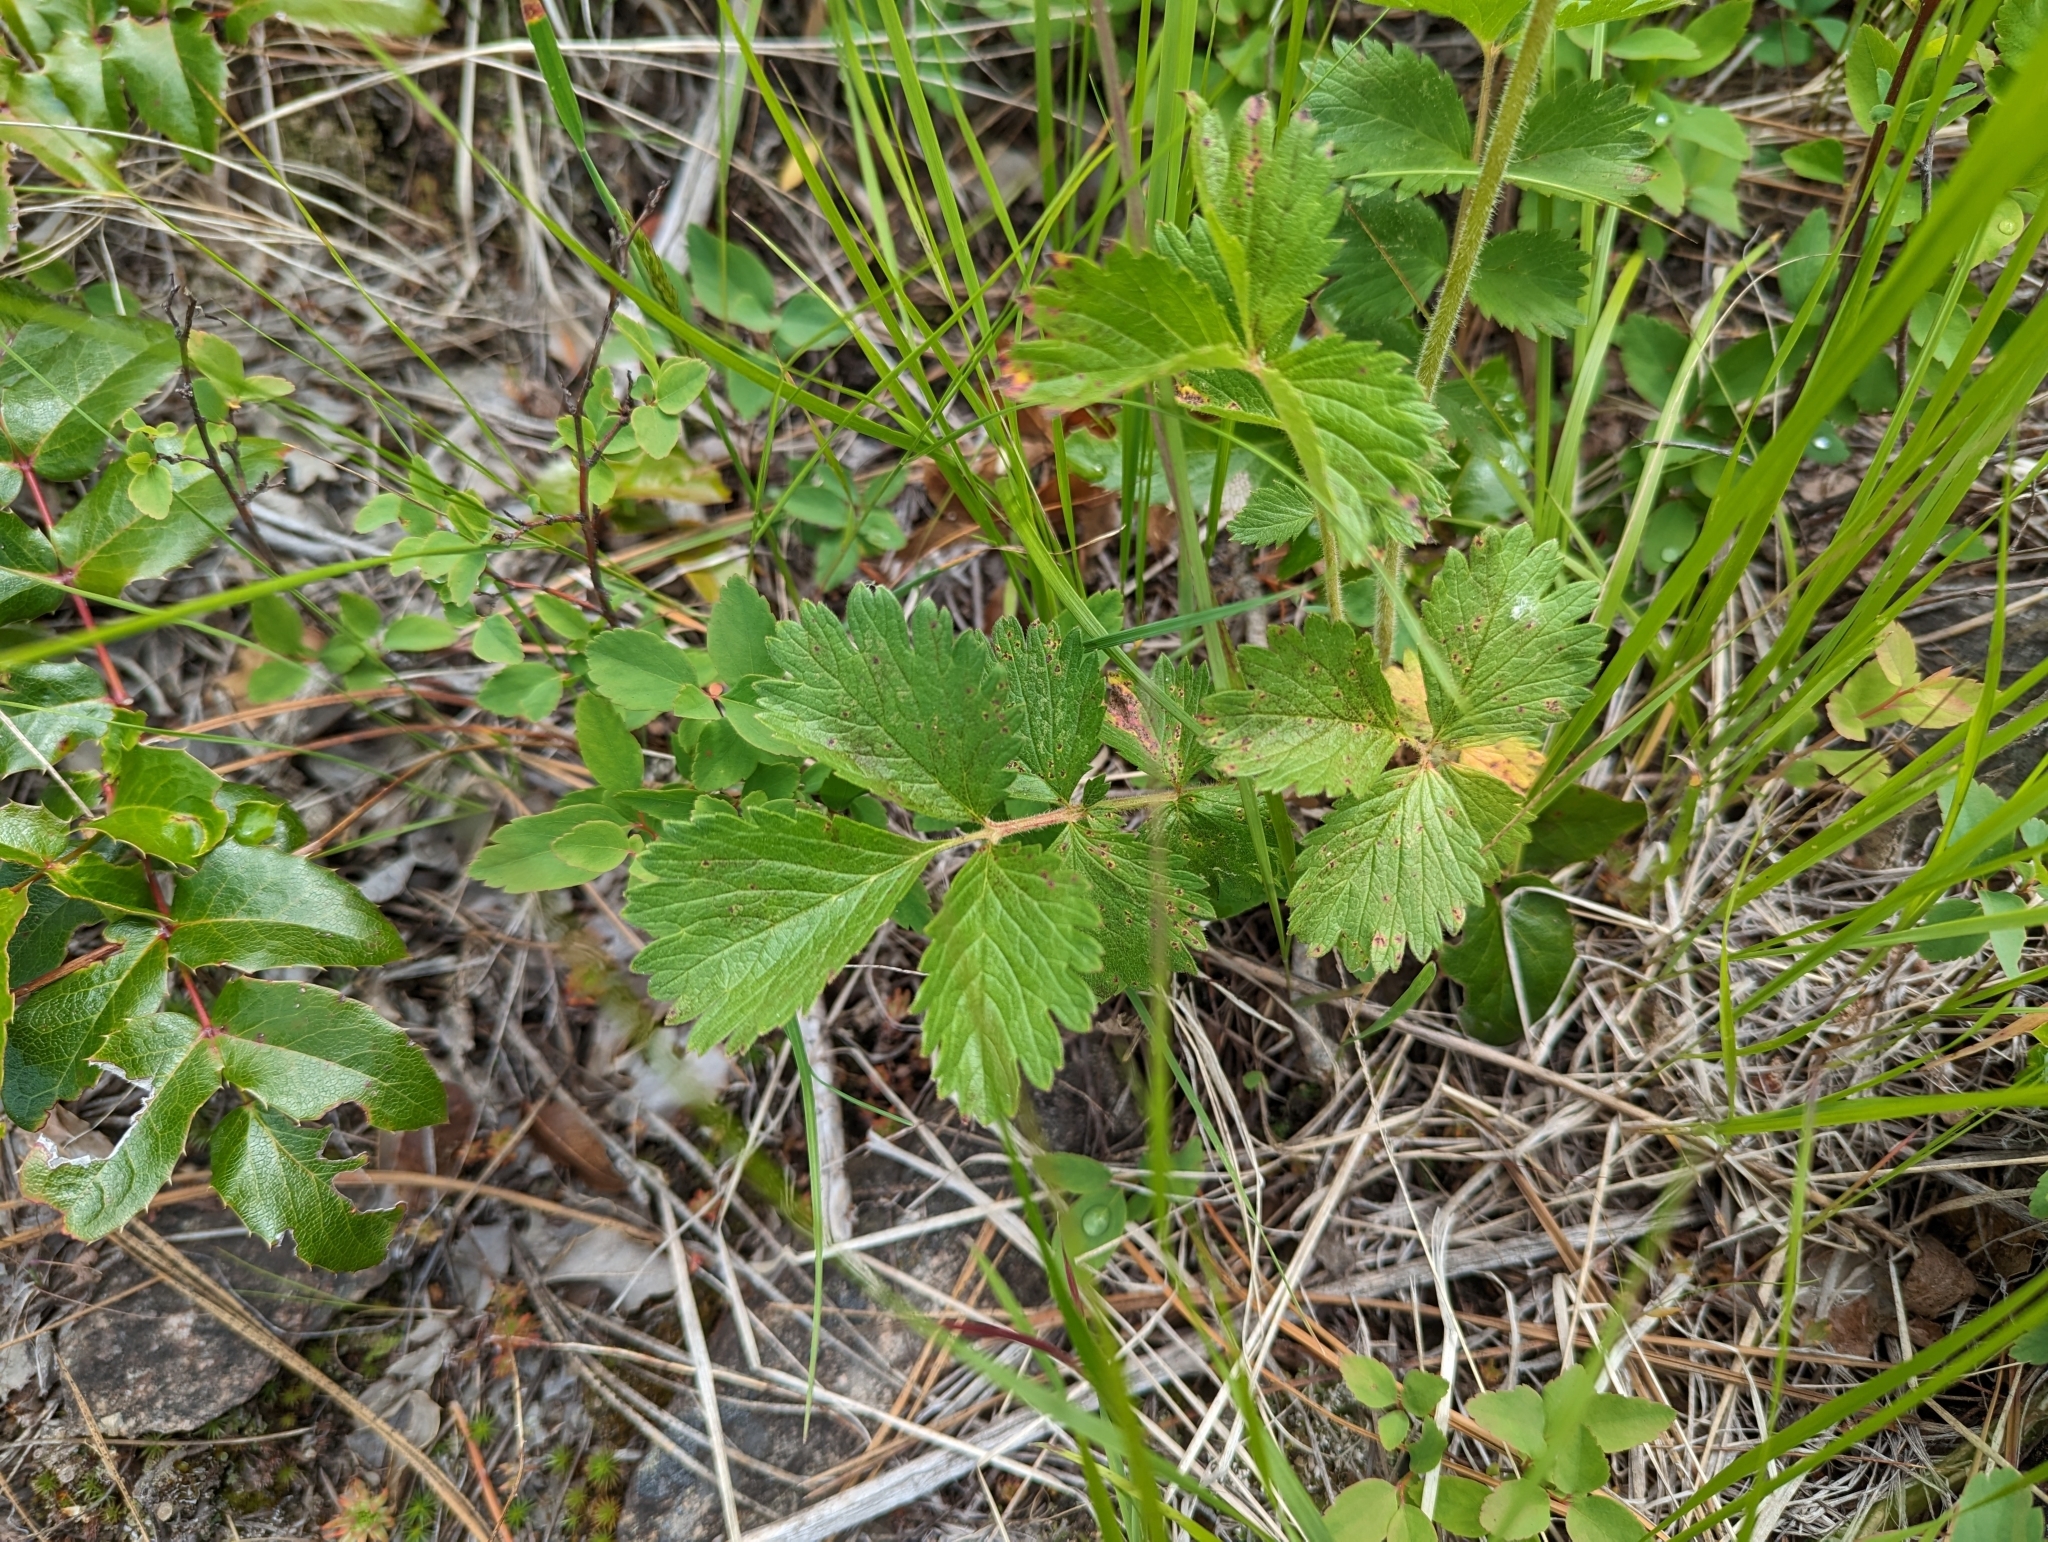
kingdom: Plantae
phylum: Tracheophyta
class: Magnoliopsida
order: Rosales
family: Rosaceae
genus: Drymocallis
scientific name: Drymocallis convallaria
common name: Cream cinquefoil
